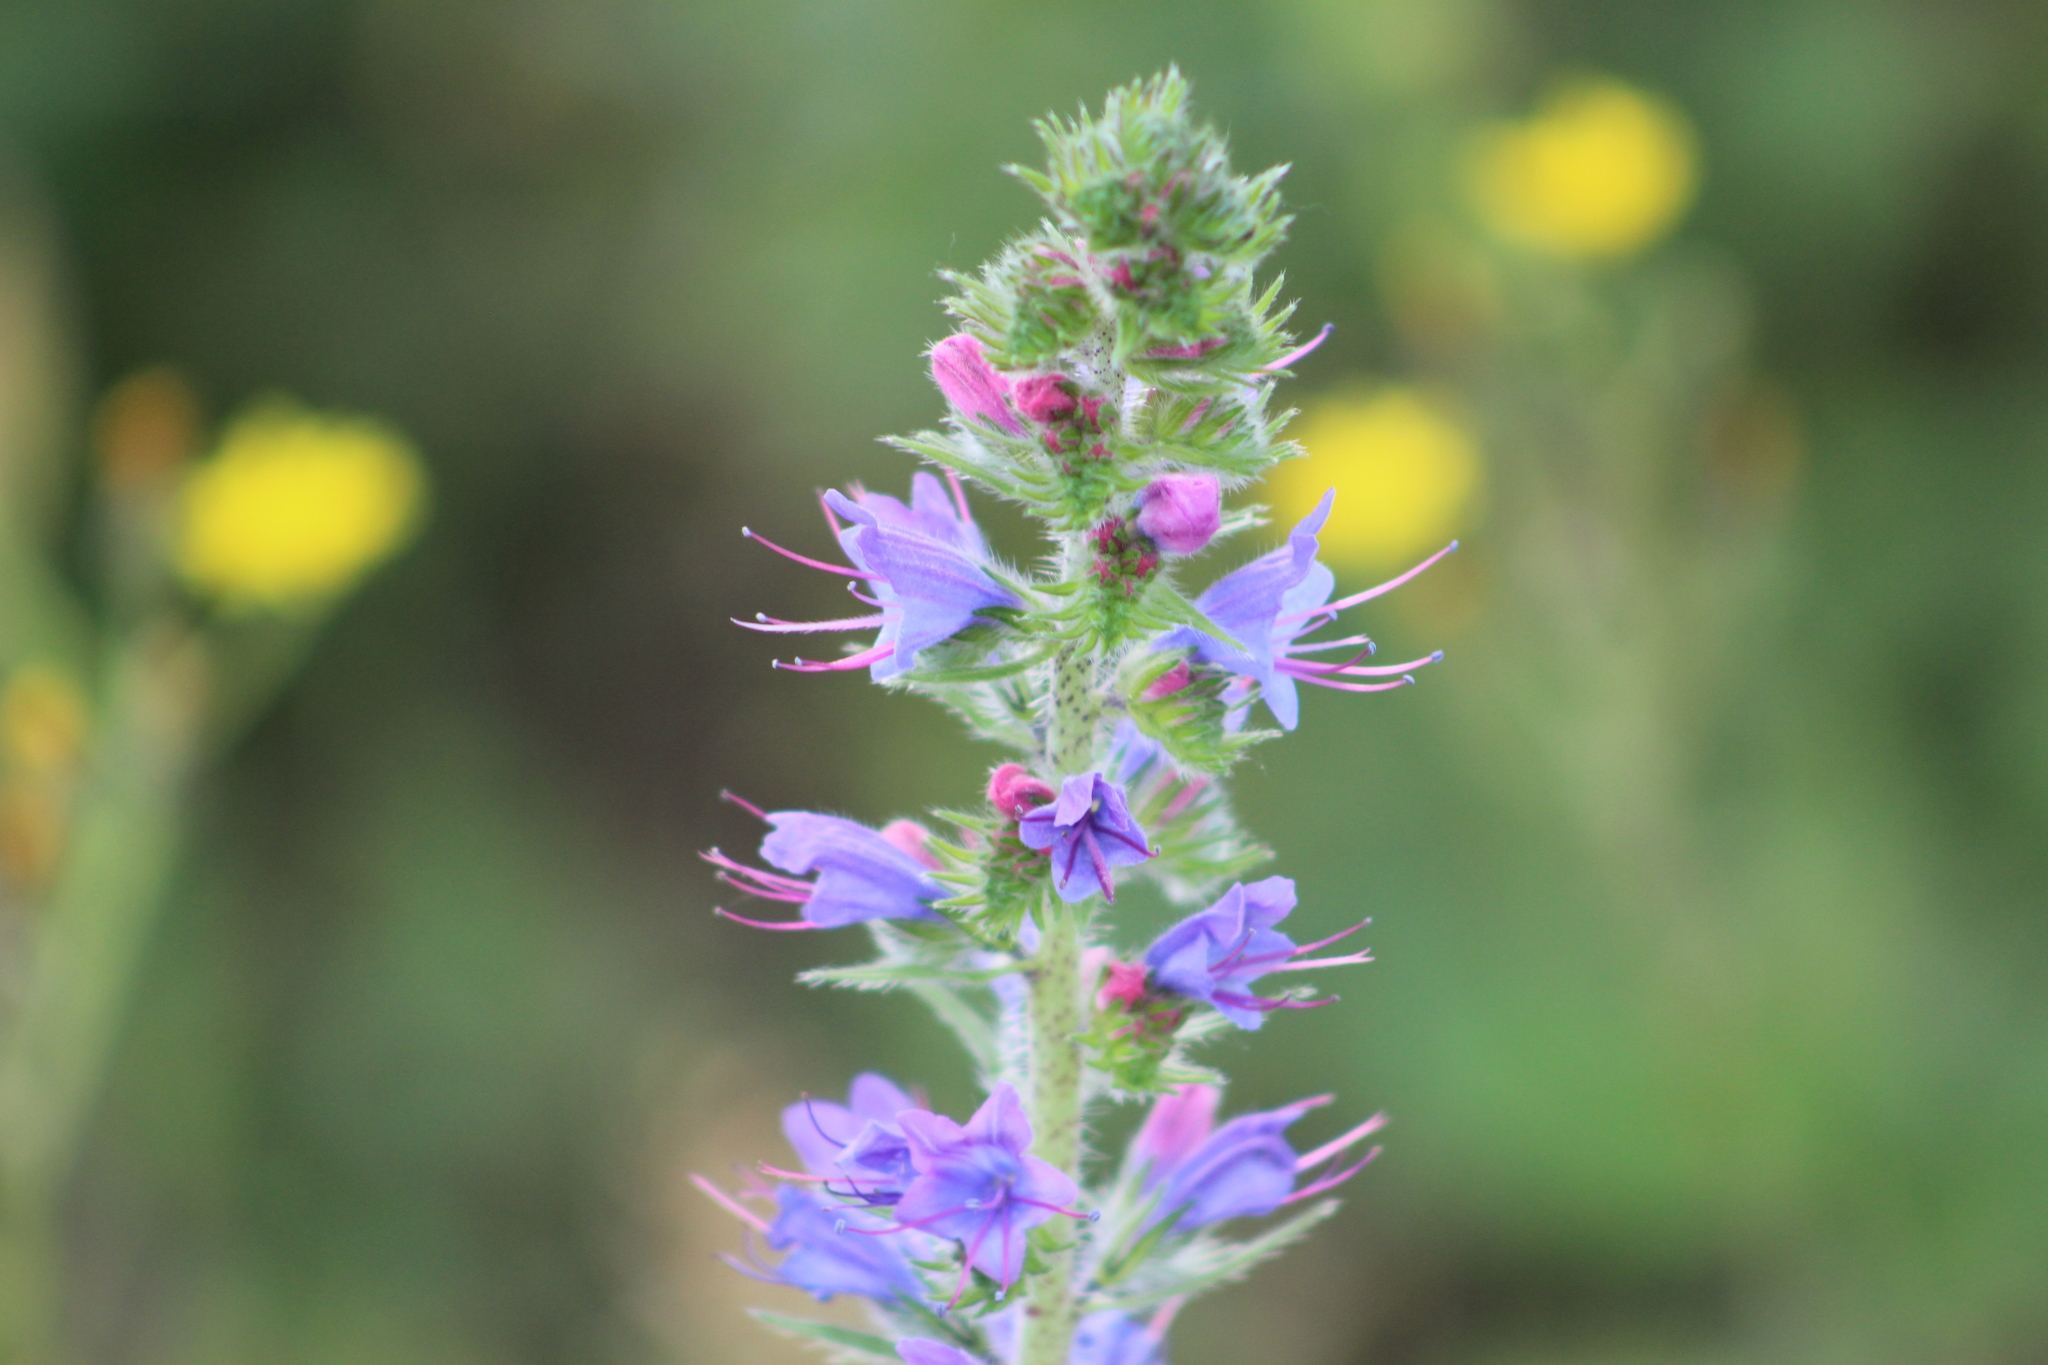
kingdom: Plantae
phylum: Tracheophyta
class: Magnoliopsida
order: Boraginales
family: Boraginaceae
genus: Echium
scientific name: Echium vulgare
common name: Common viper's bugloss
